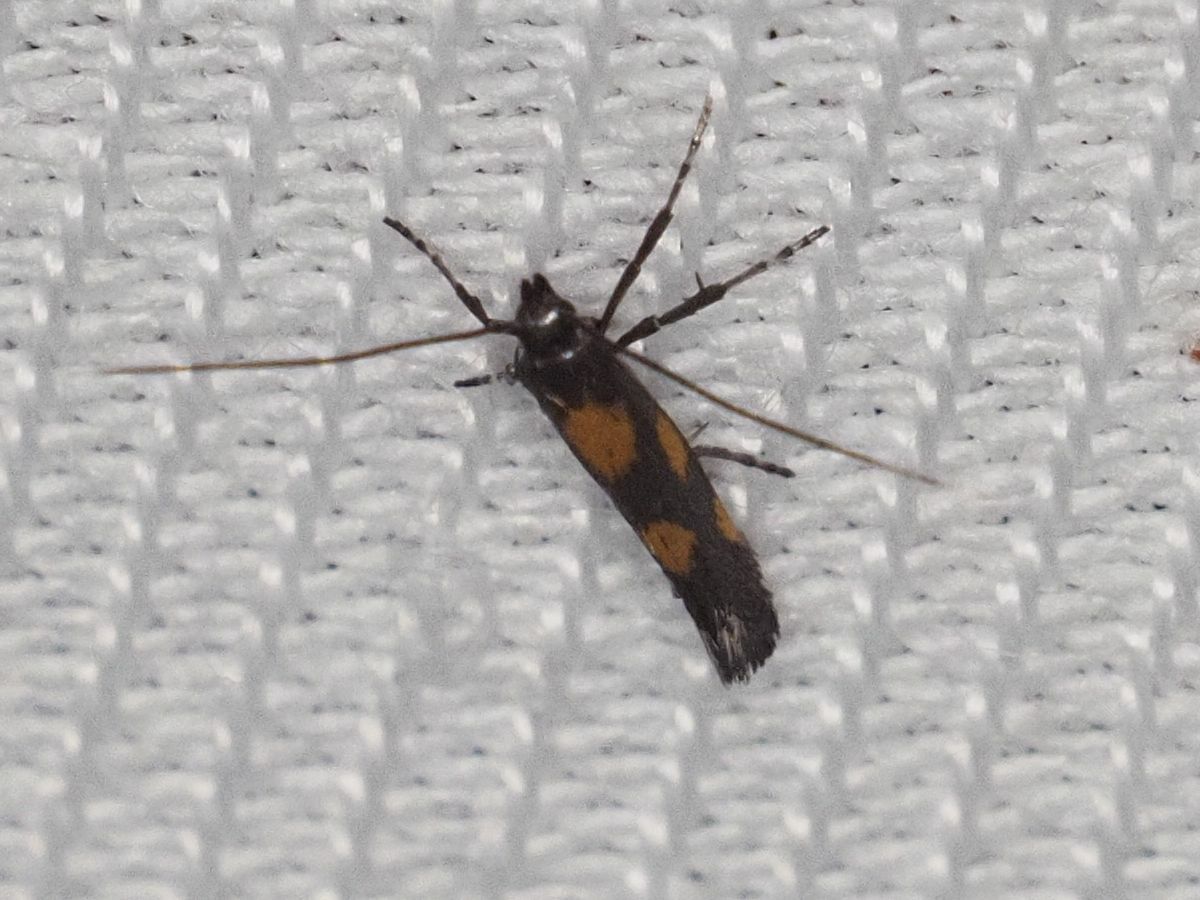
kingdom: Animalia
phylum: Arthropoda
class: Insecta
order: Lepidoptera
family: Gracillariidae
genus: Euspilapteryx
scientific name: Euspilapteryx auroguttella
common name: Gold-dot slender
